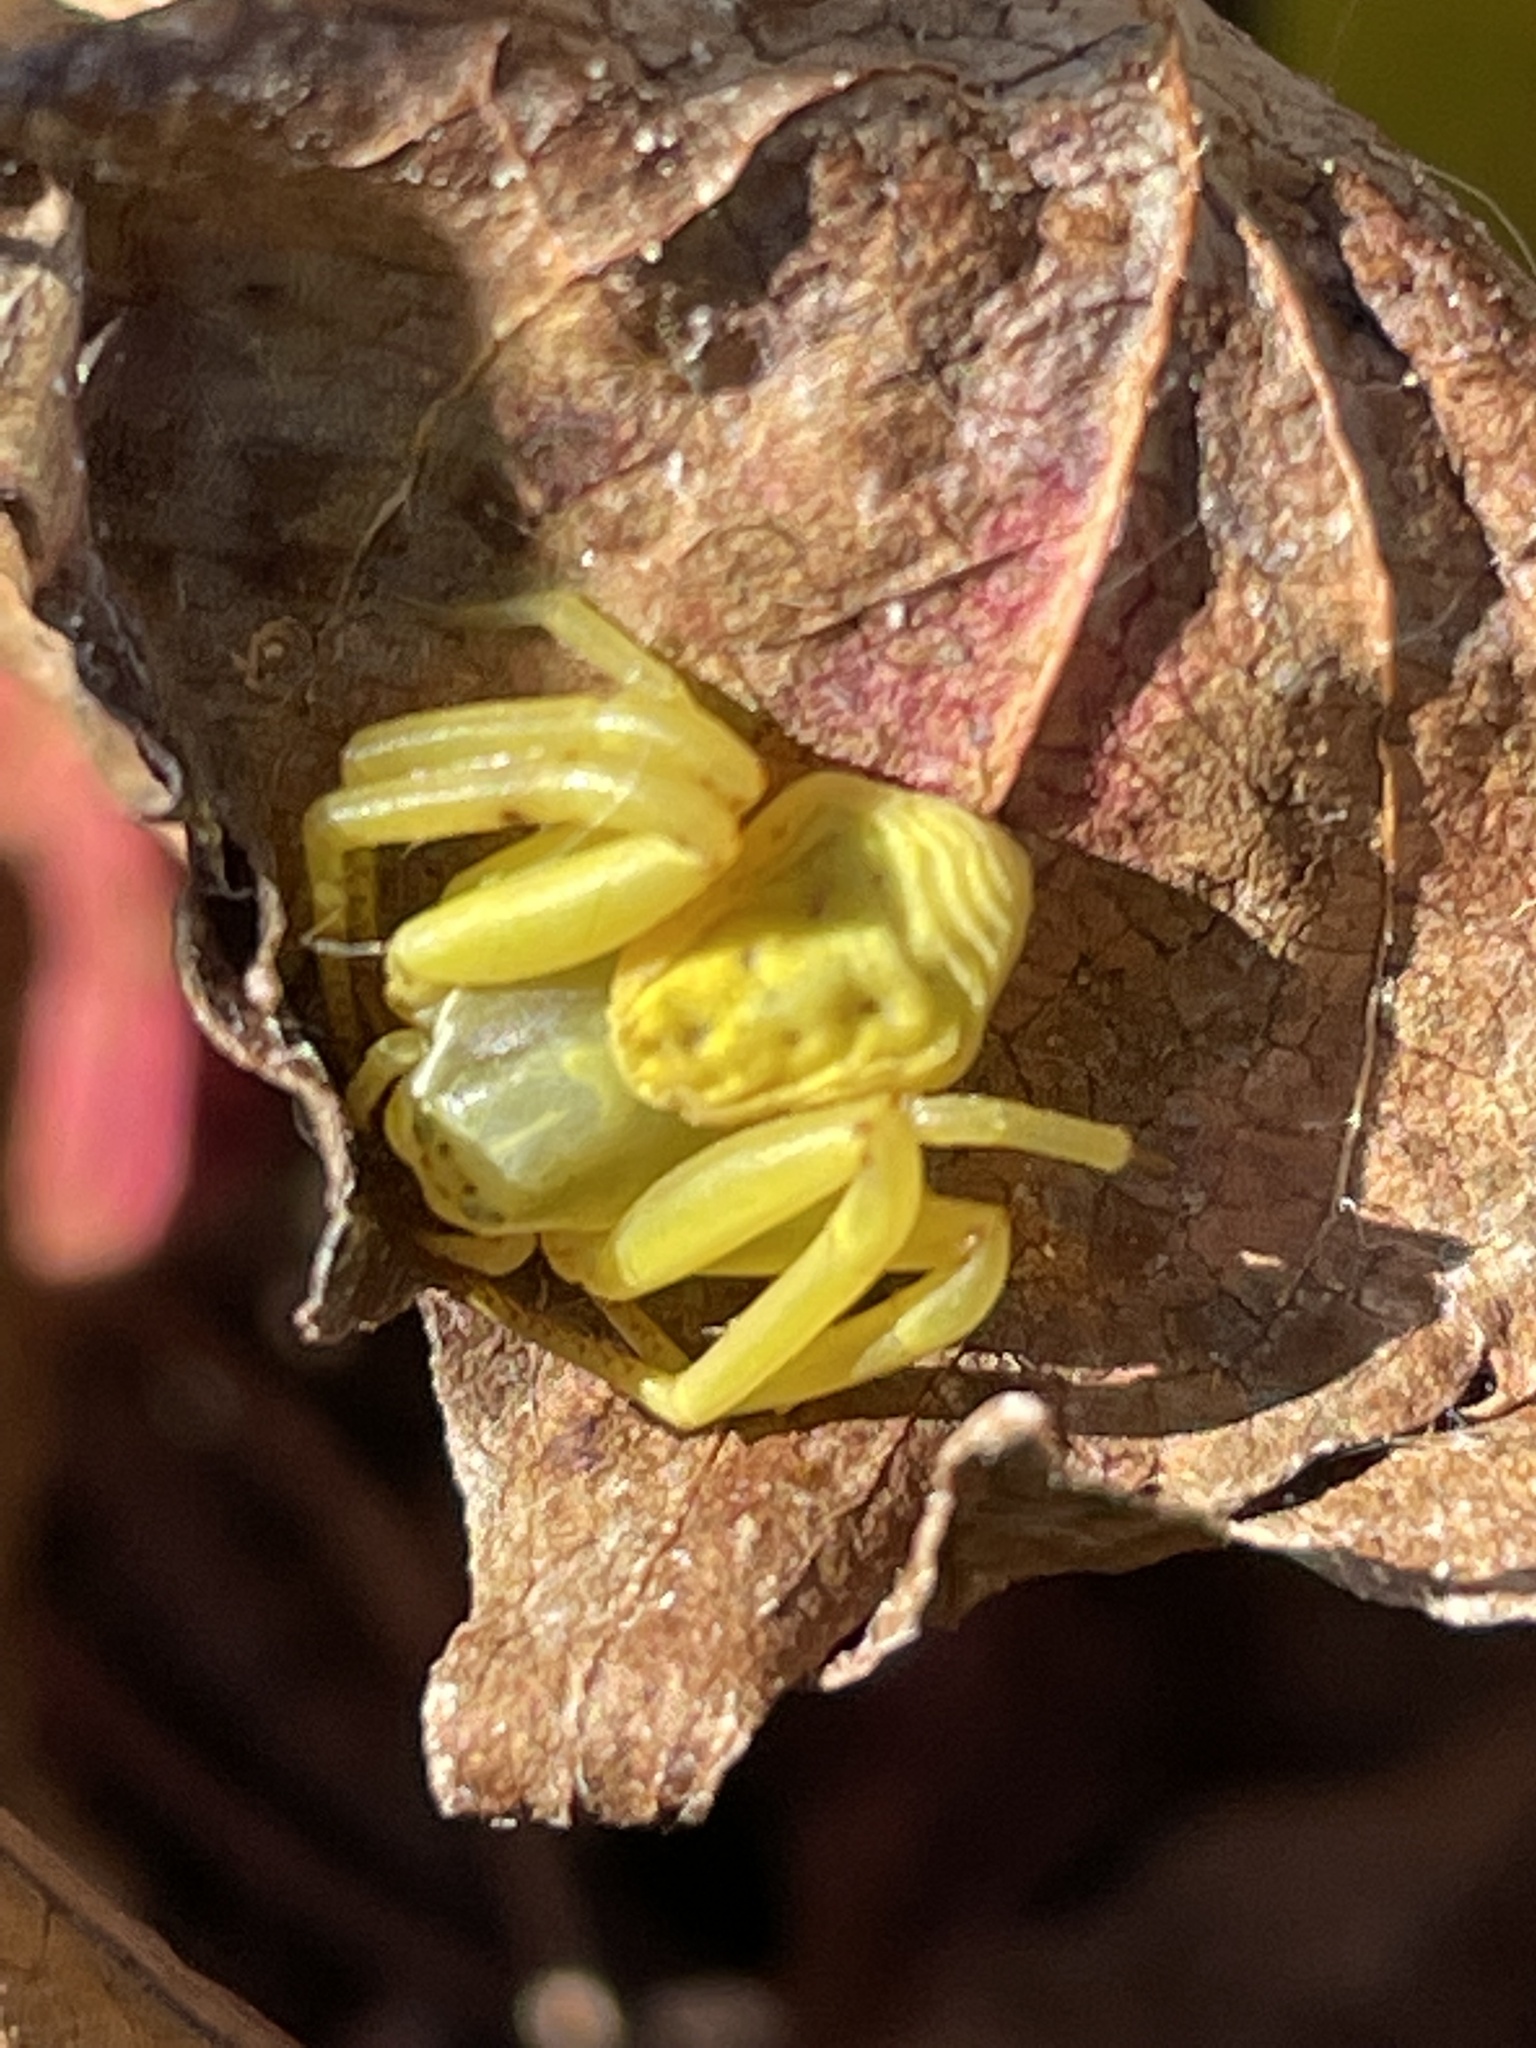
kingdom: Animalia
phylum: Arthropoda
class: Arachnida
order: Araneae
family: Thomisidae
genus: Misumenoides
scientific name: Misumenoides formosipes
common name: White-banded crab spider
